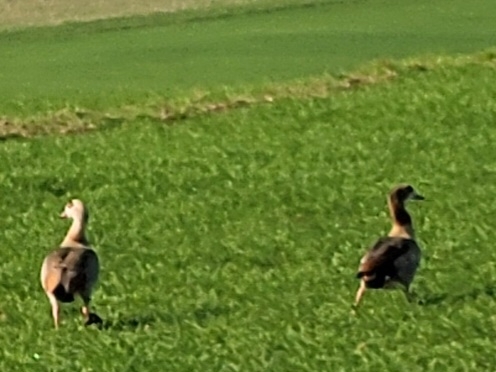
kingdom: Animalia
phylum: Chordata
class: Aves
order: Anseriformes
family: Anatidae
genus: Alopochen
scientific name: Alopochen aegyptiaca
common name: Egyptian goose
